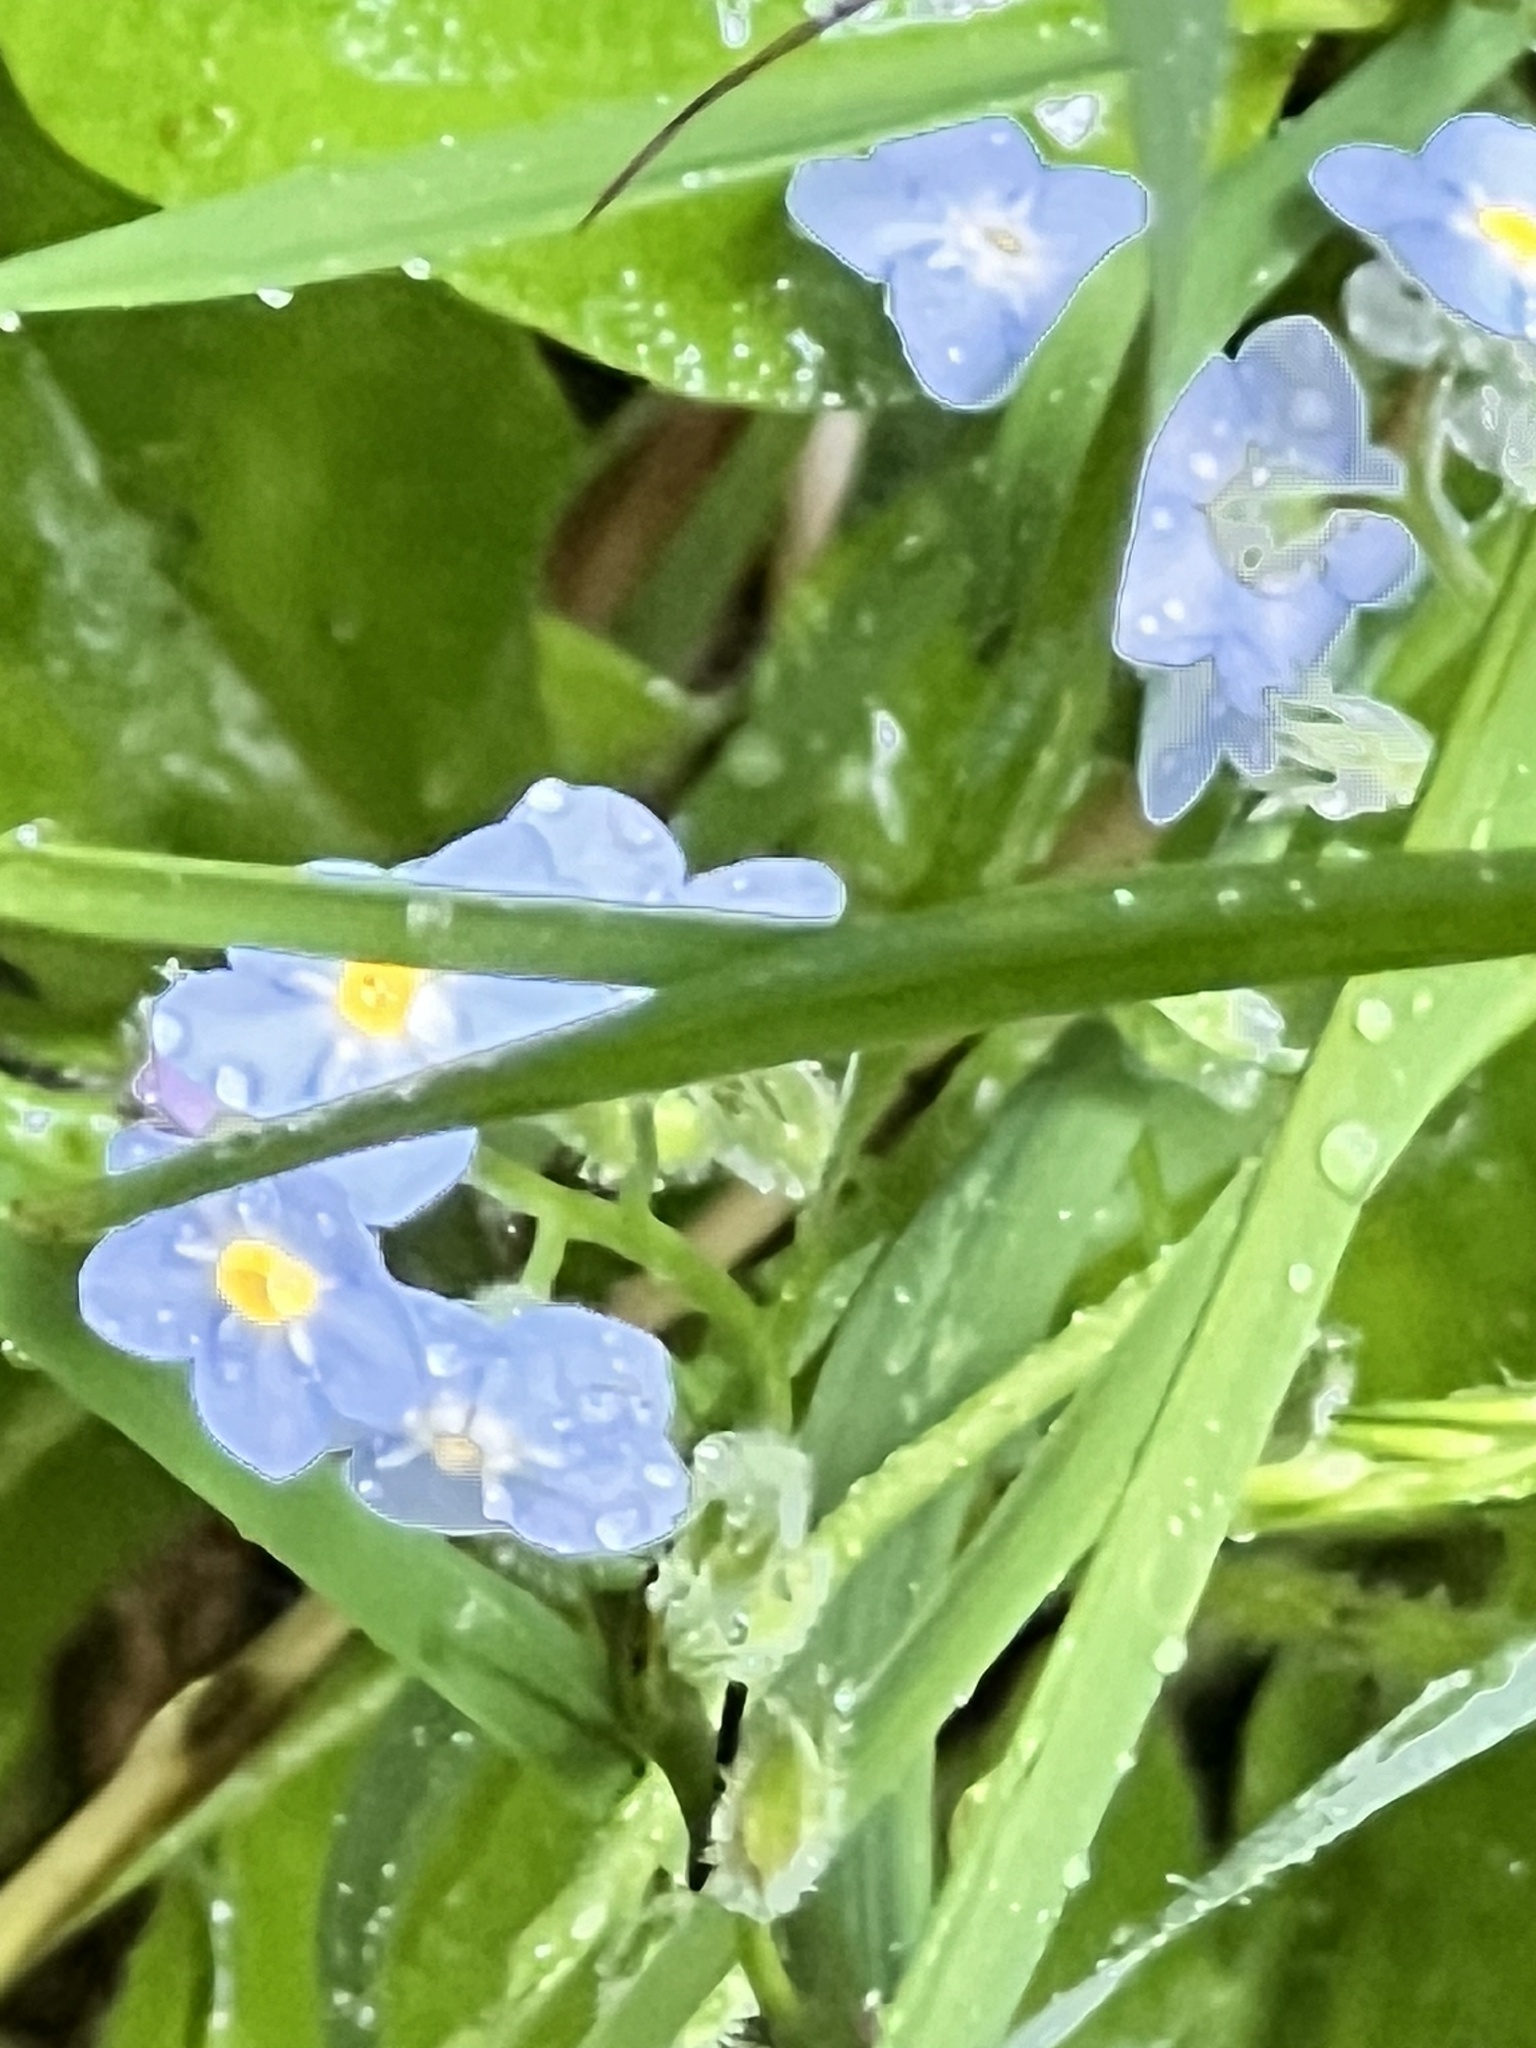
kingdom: Plantae
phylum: Tracheophyta
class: Magnoliopsida
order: Boraginales
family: Boraginaceae
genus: Myosotis
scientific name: Myosotis sylvatica
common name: Wood forget-me-not
